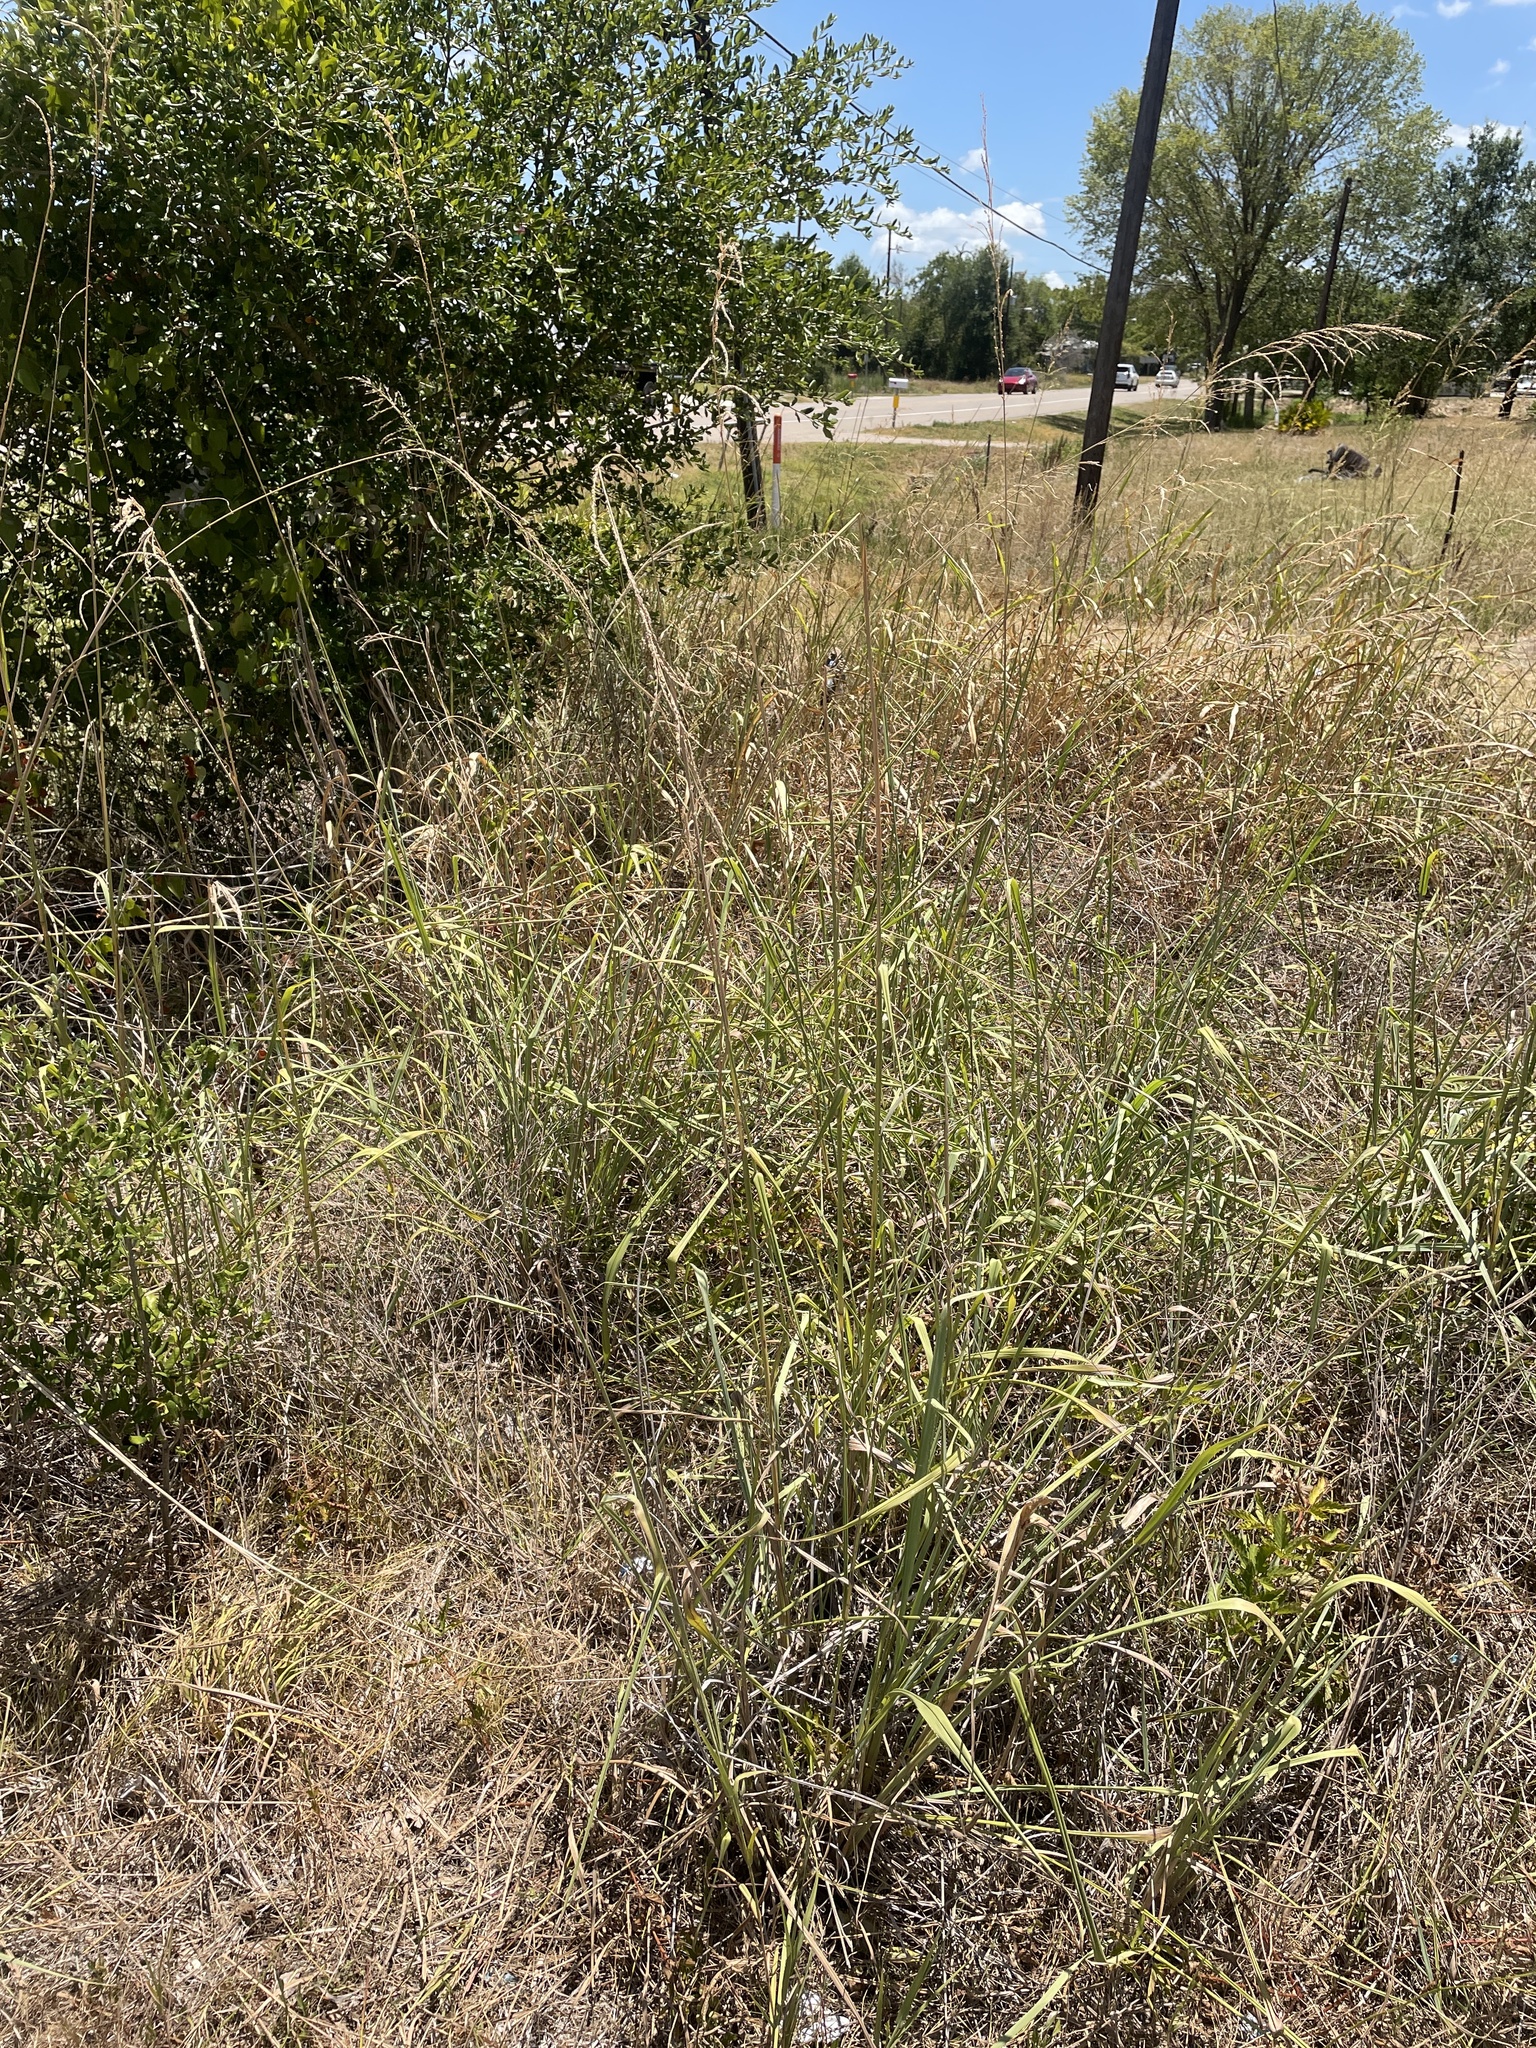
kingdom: Plantae
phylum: Tracheophyta
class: Liliopsida
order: Poales
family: Poaceae
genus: Paspalum
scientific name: Paspalum urvillei
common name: Vasey's grass
